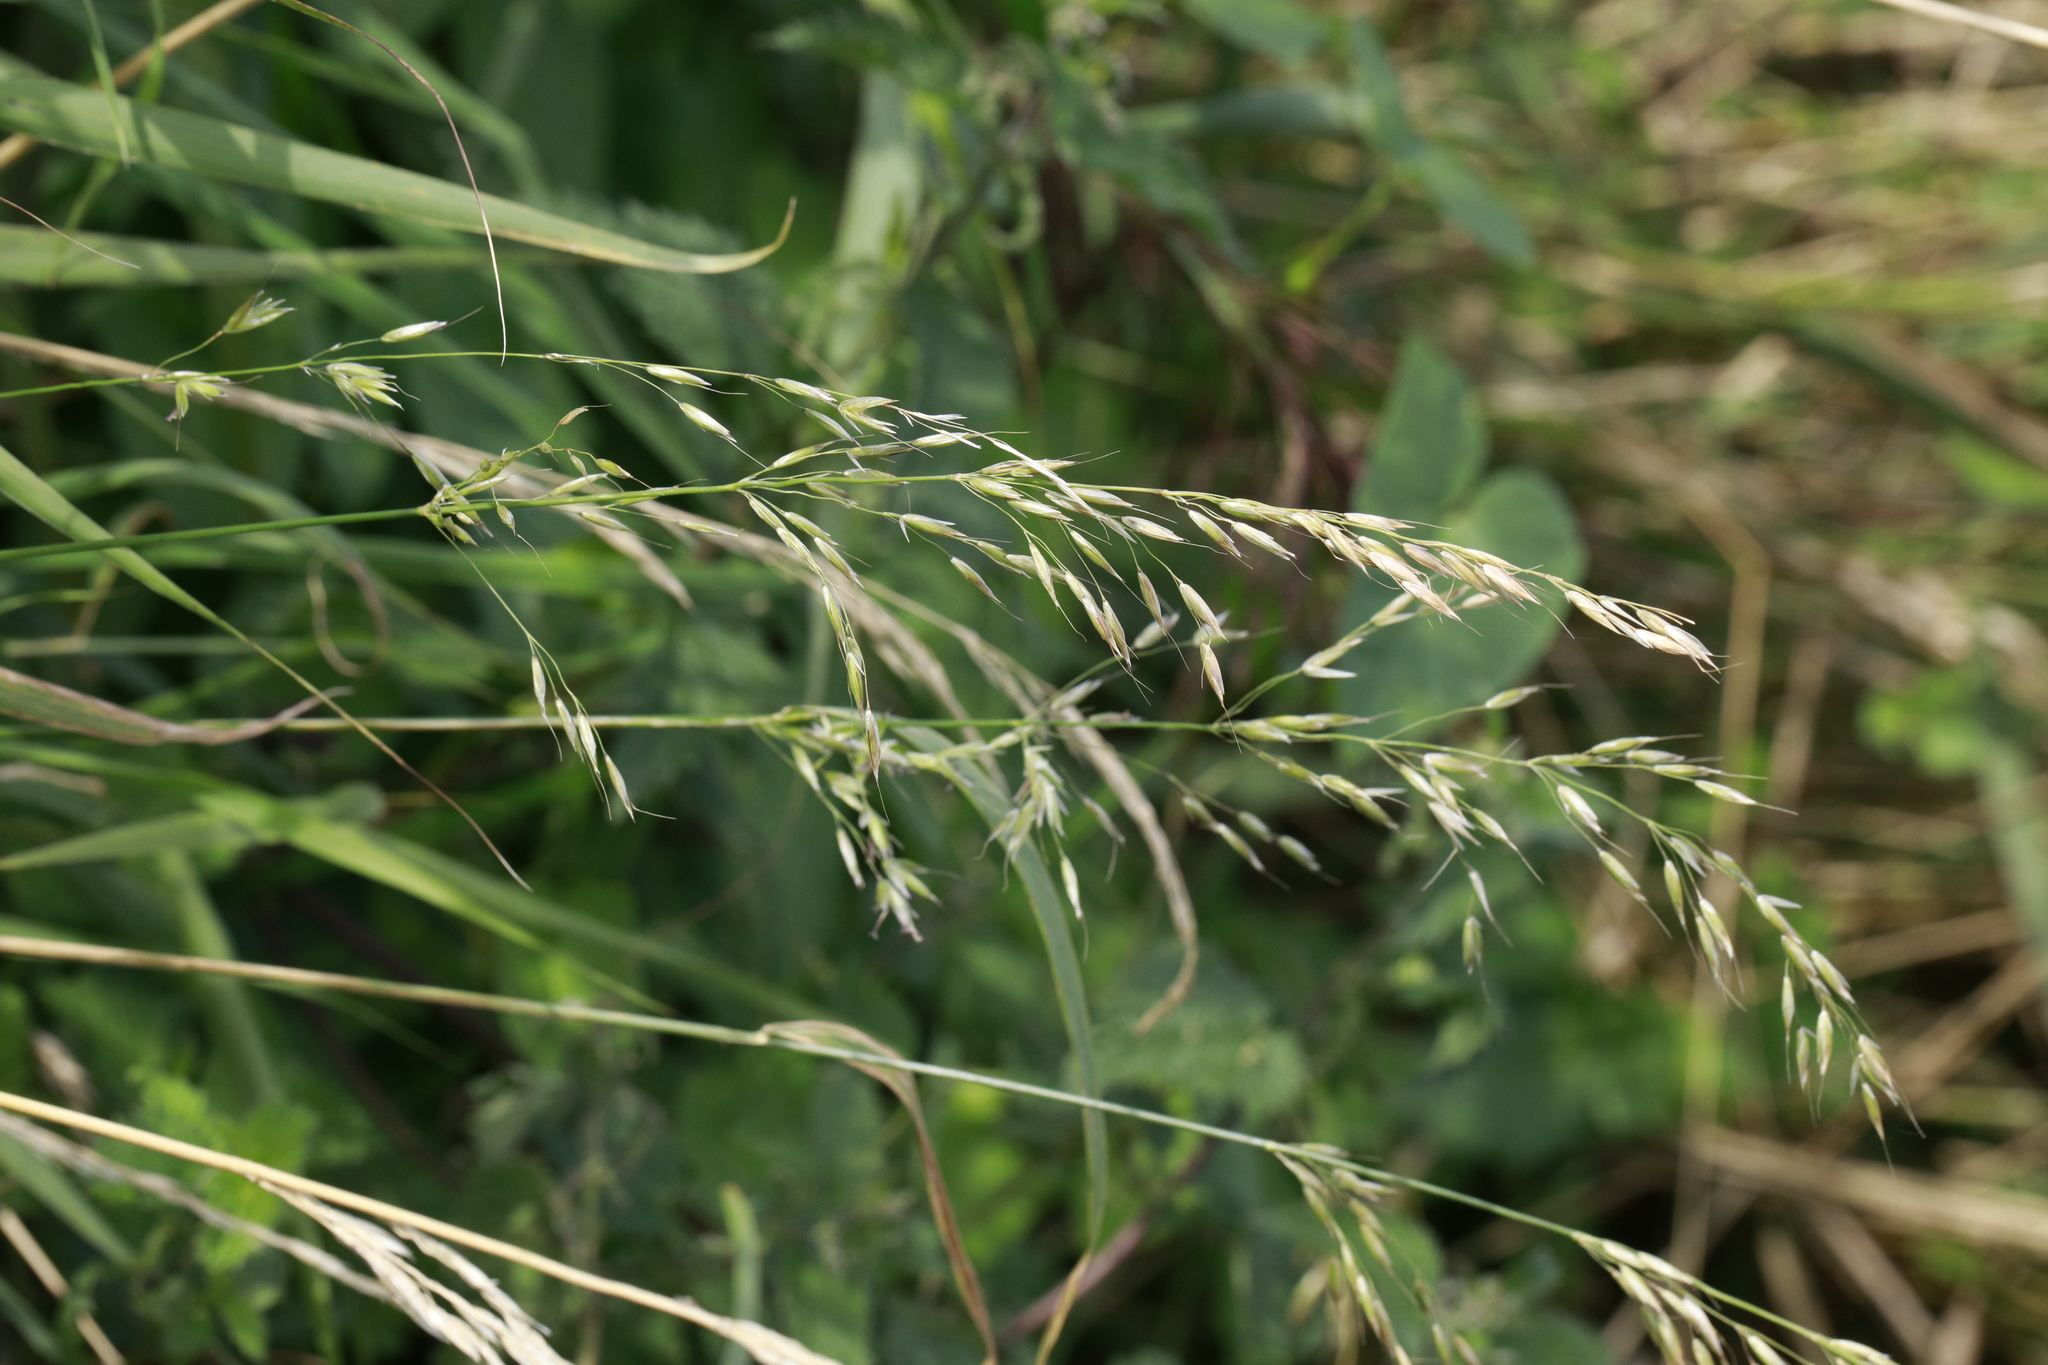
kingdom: Plantae
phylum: Tracheophyta
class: Liliopsida
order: Poales
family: Poaceae
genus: Arrhenatherum
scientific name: Arrhenatherum elatius
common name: Tall oatgrass
